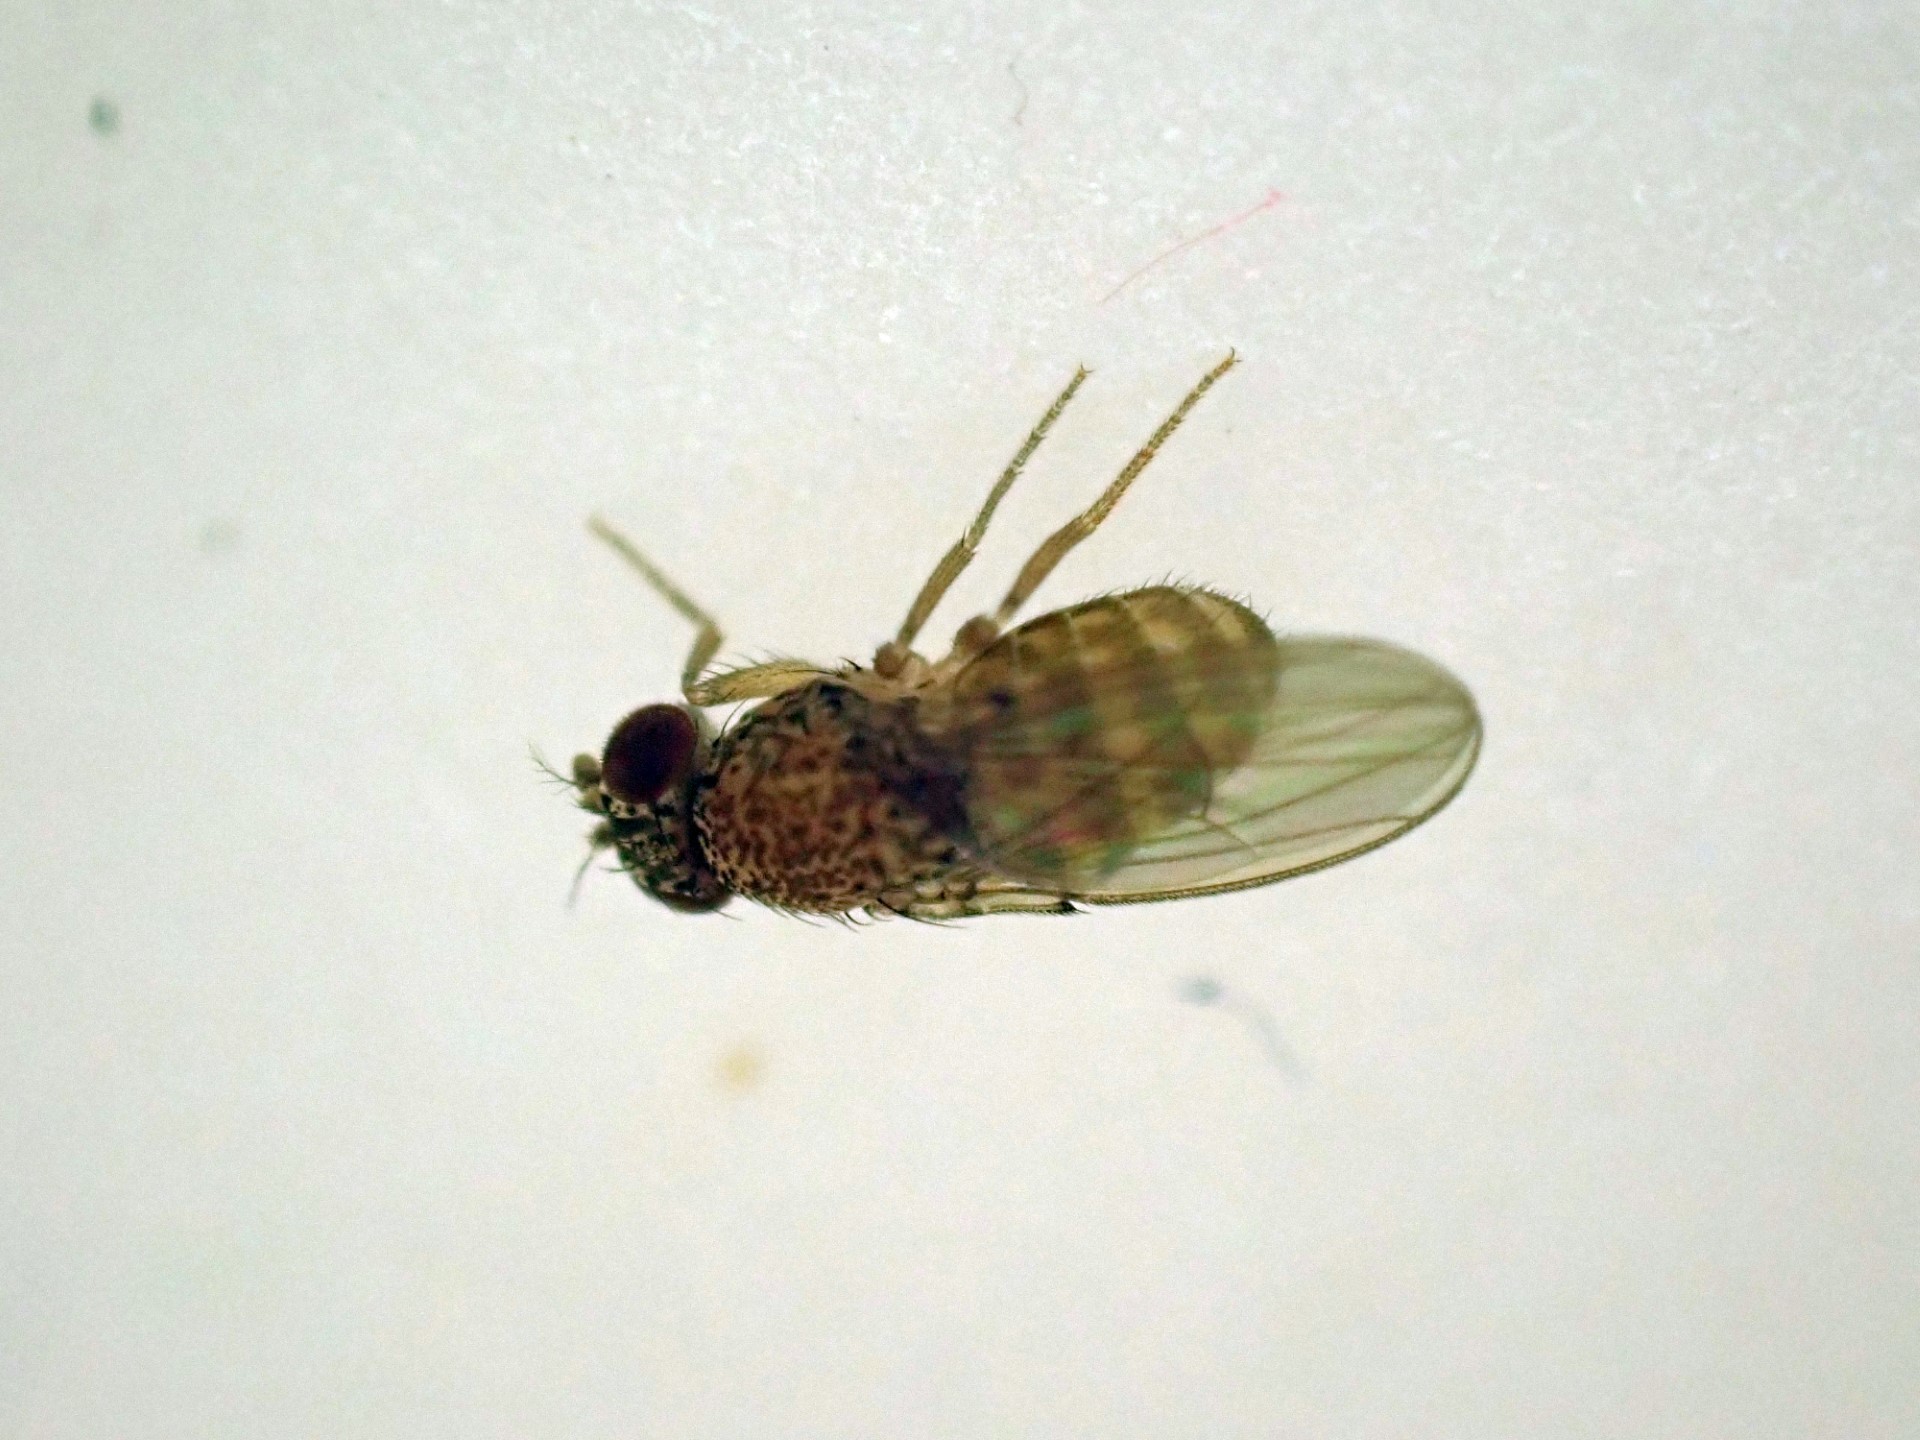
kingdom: Animalia
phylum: Arthropoda
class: Insecta
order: Diptera
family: Drosophilidae
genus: Drosophila
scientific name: Drosophila repleta
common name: Pomace fly
